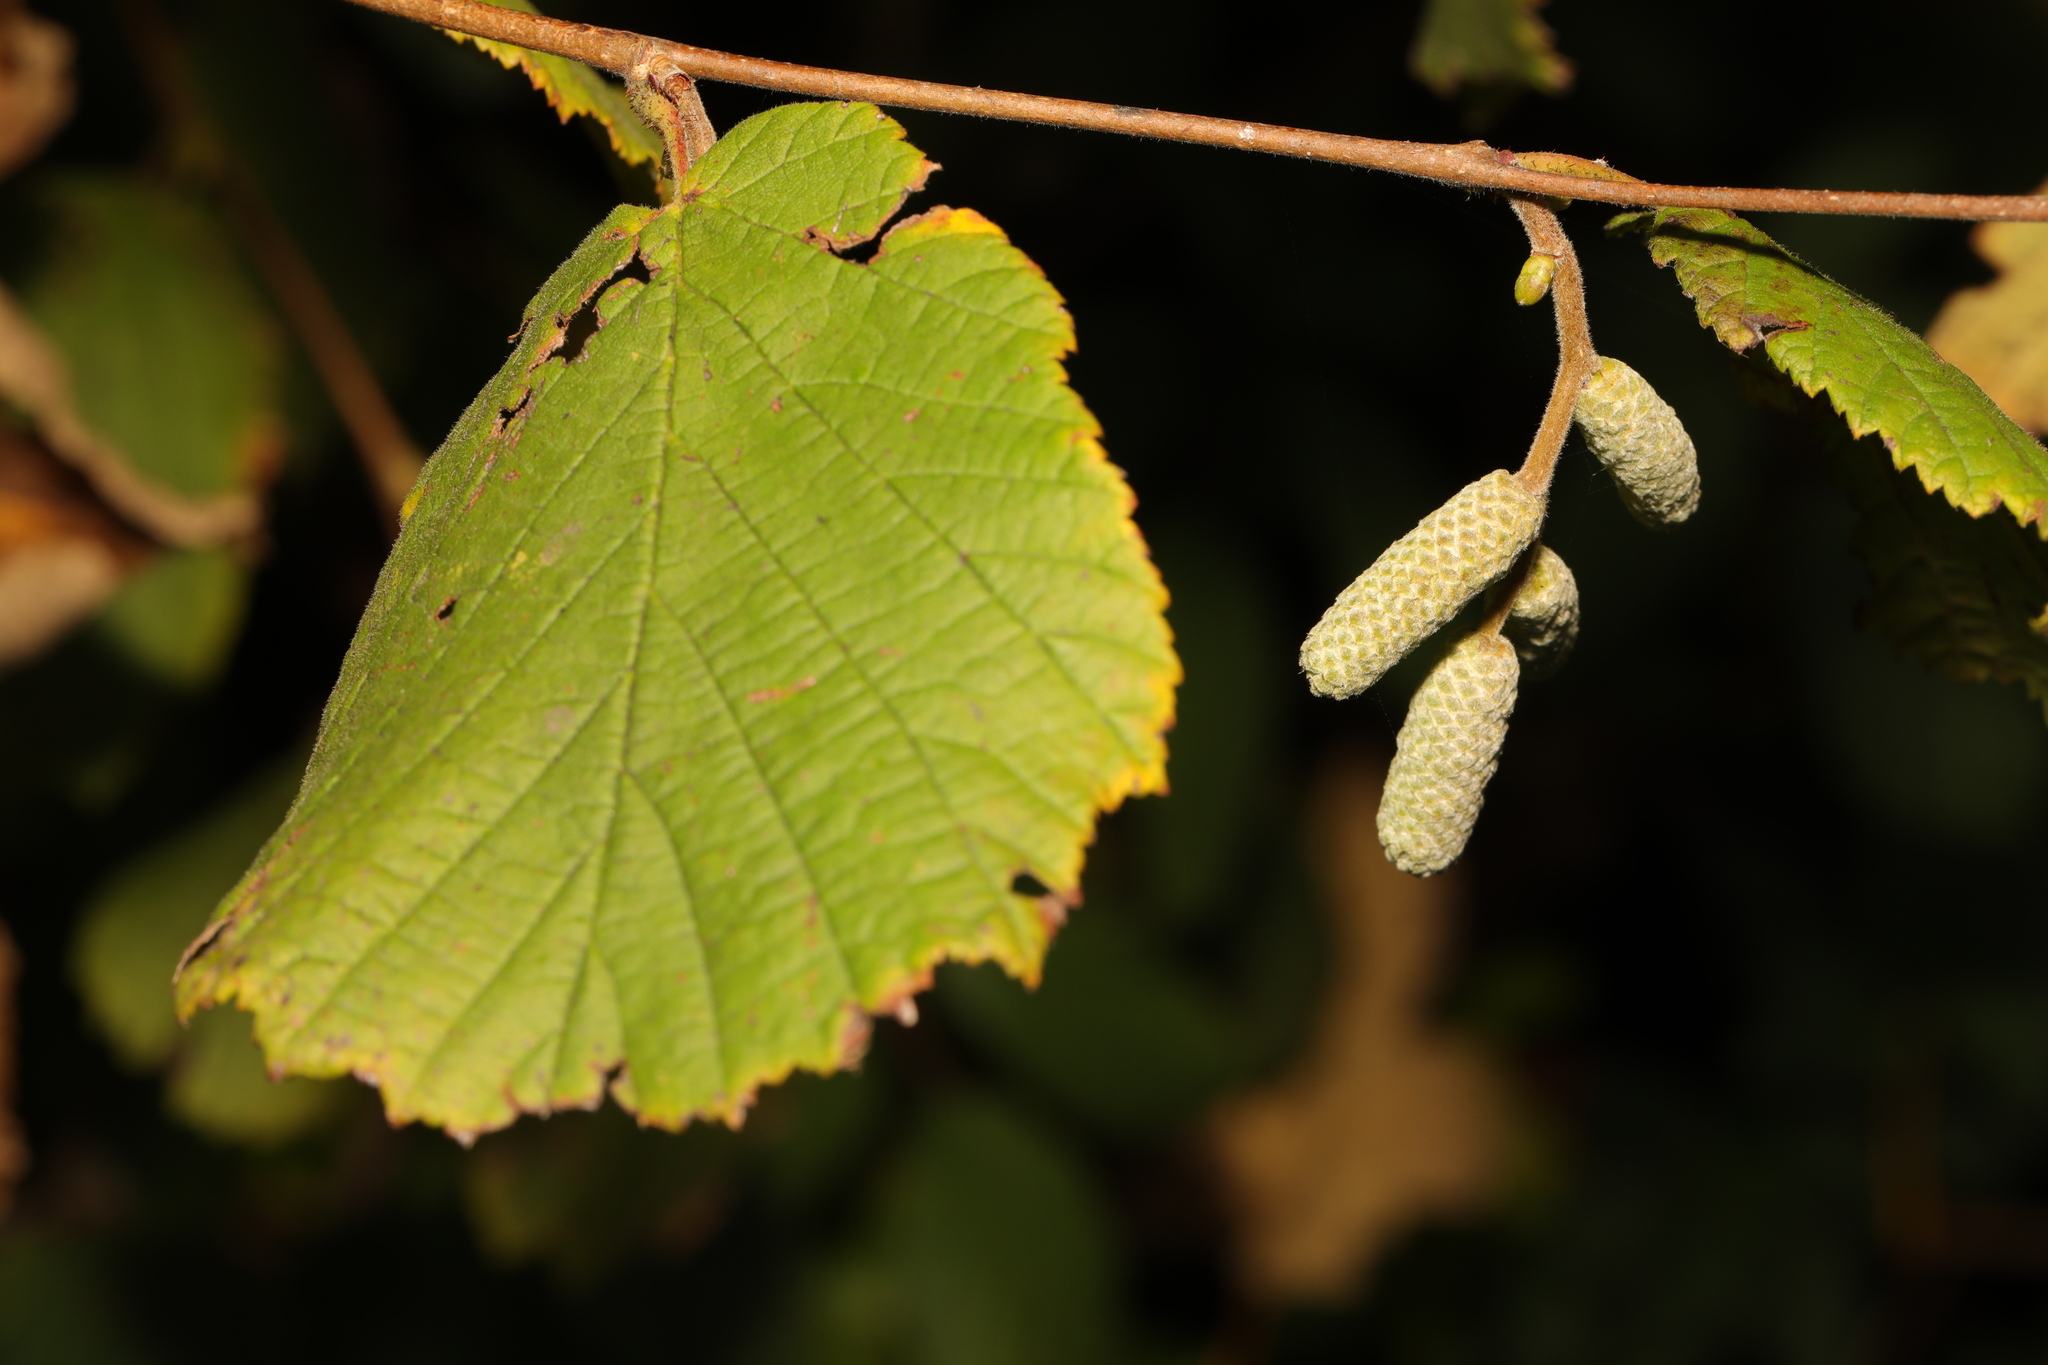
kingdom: Plantae
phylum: Tracheophyta
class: Magnoliopsida
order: Fagales
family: Betulaceae
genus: Corylus
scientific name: Corylus avellana
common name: European hazel
